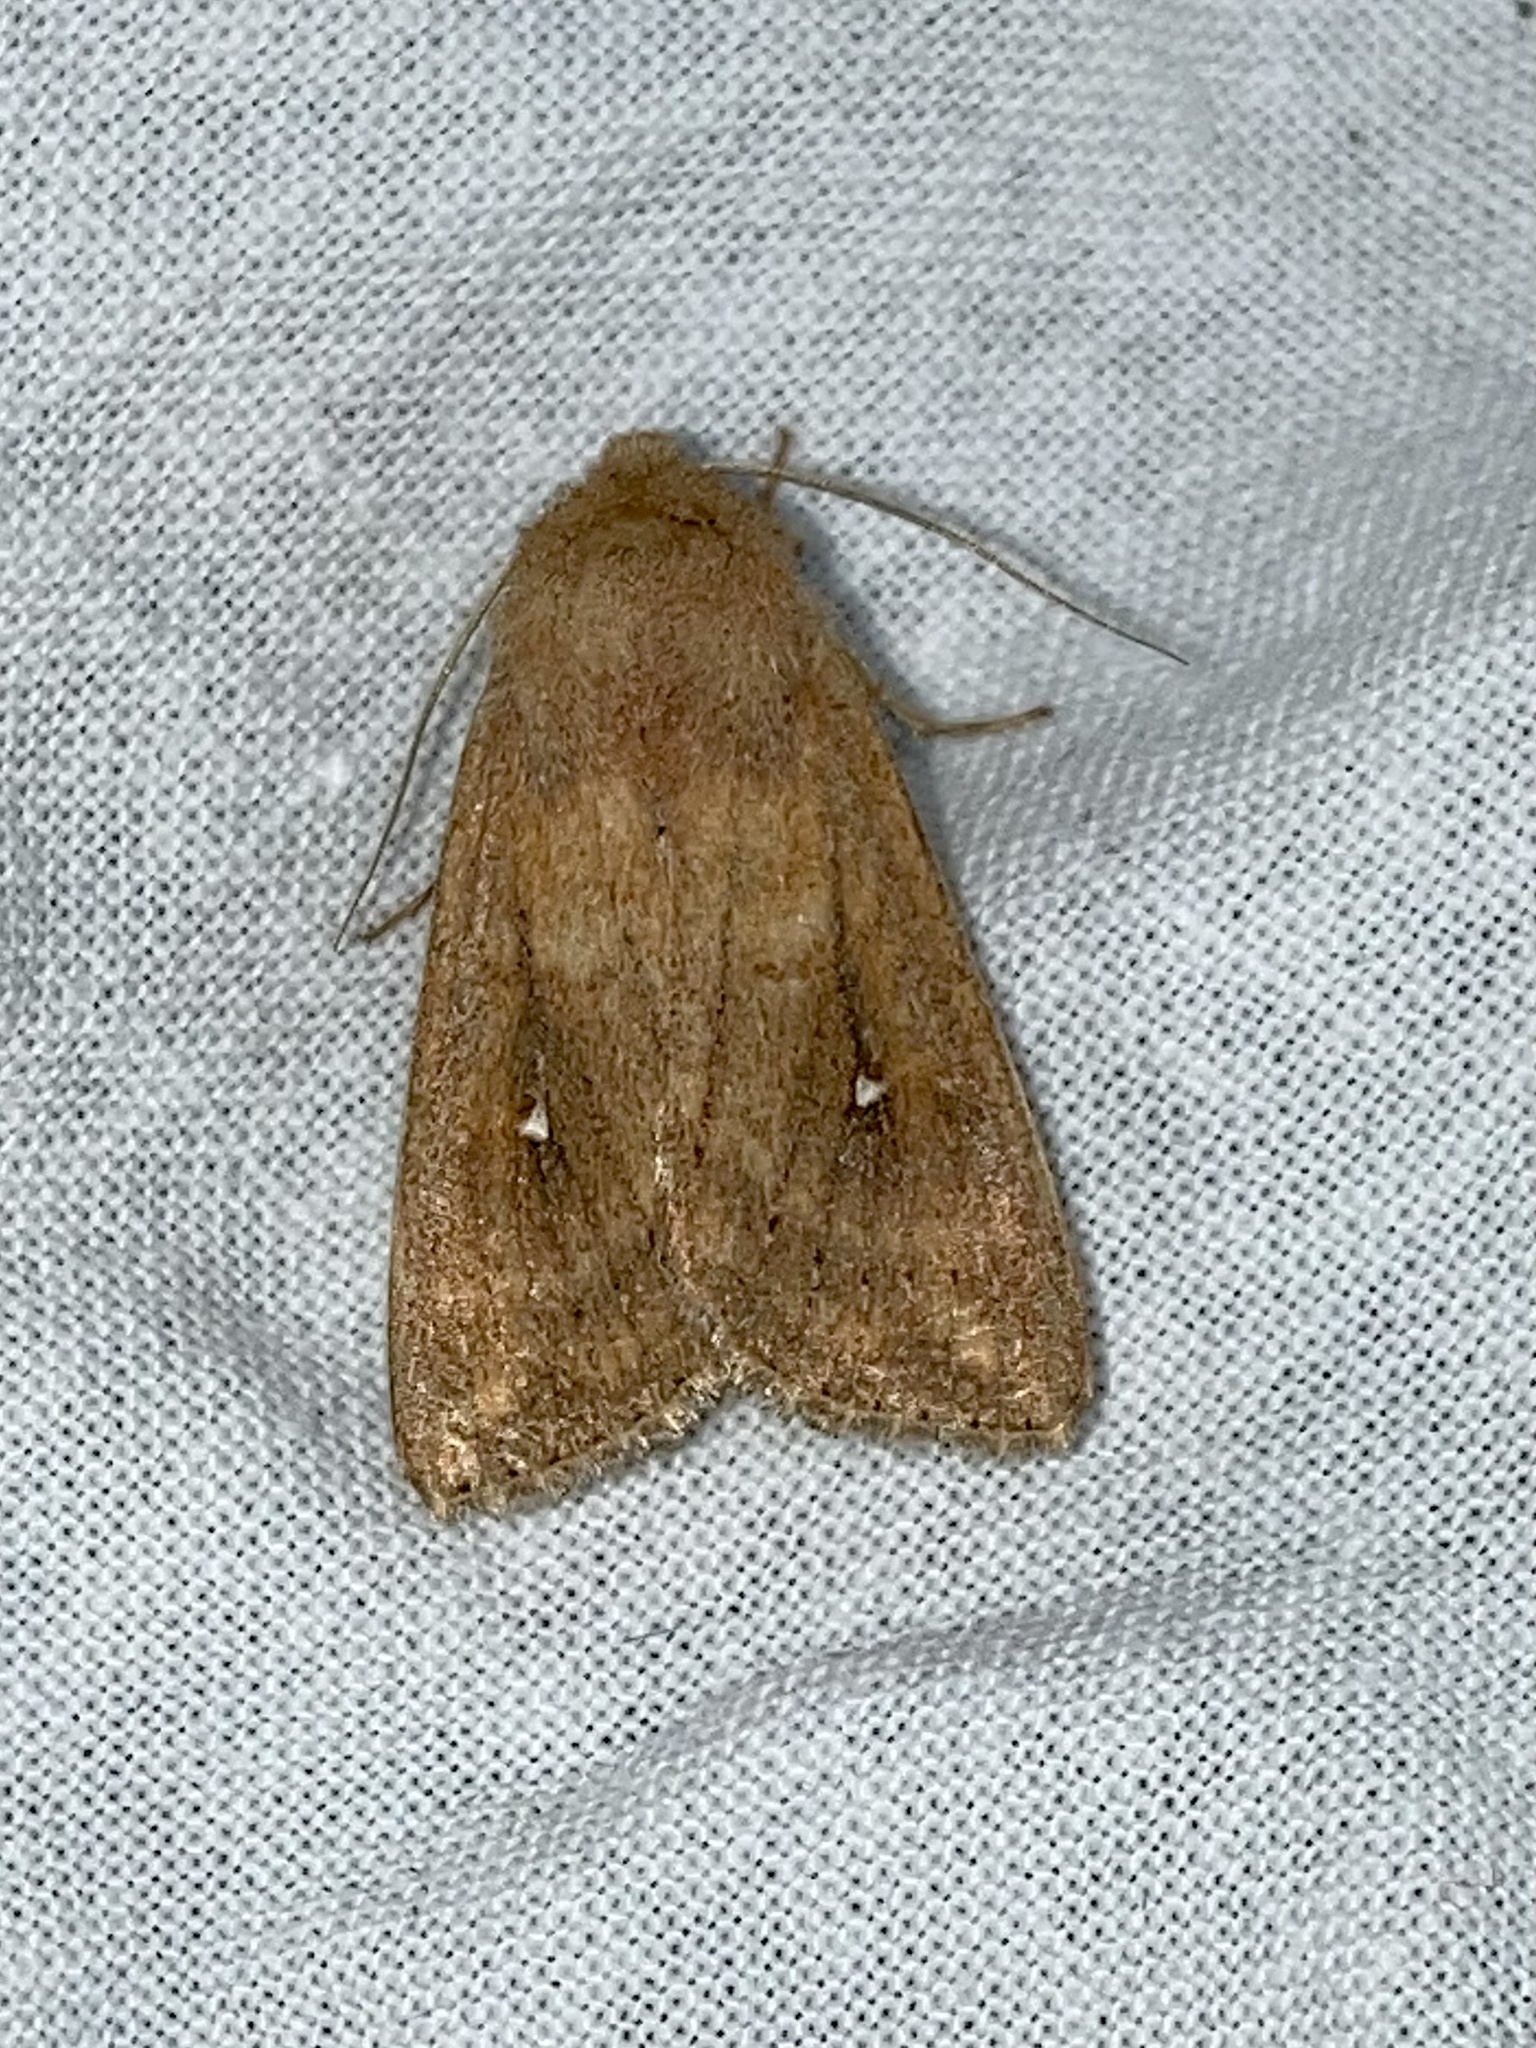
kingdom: Animalia
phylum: Arthropoda
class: Insecta
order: Lepidoptera
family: Noctuidae
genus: Mythimna
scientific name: Mythimna albipuncta
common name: White-point
